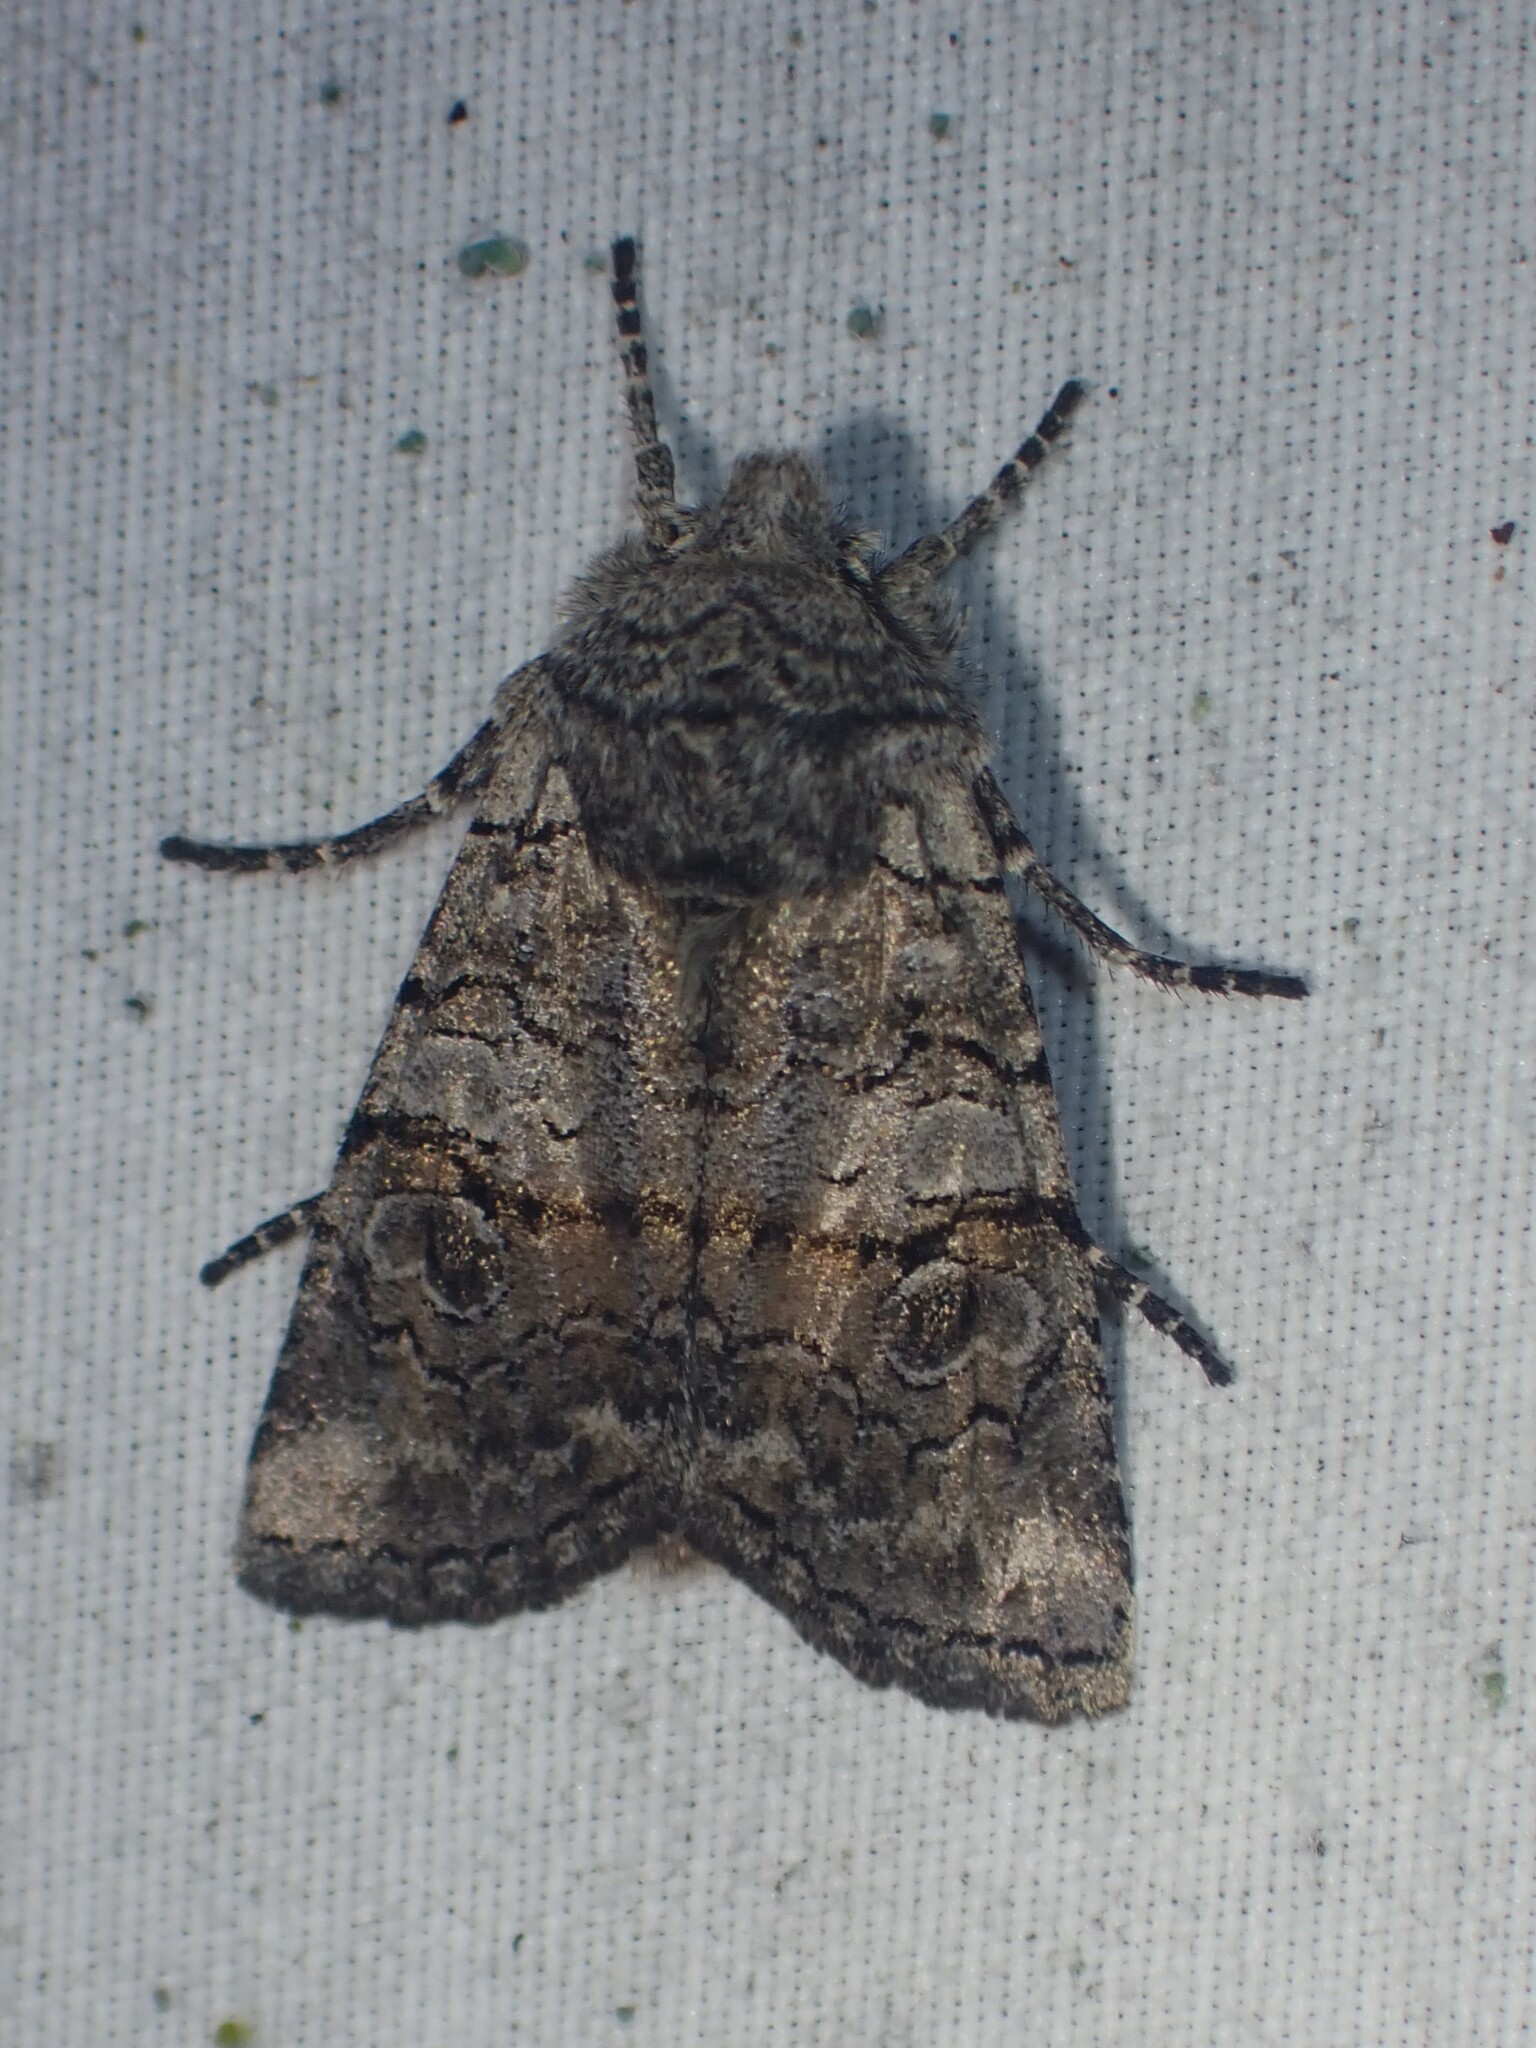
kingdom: Animalia
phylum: Arthropoda
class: Insecta
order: Lepidoptera
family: Noctuidae
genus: Litholomia
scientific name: Litholomia napaea
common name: False pinion moth
